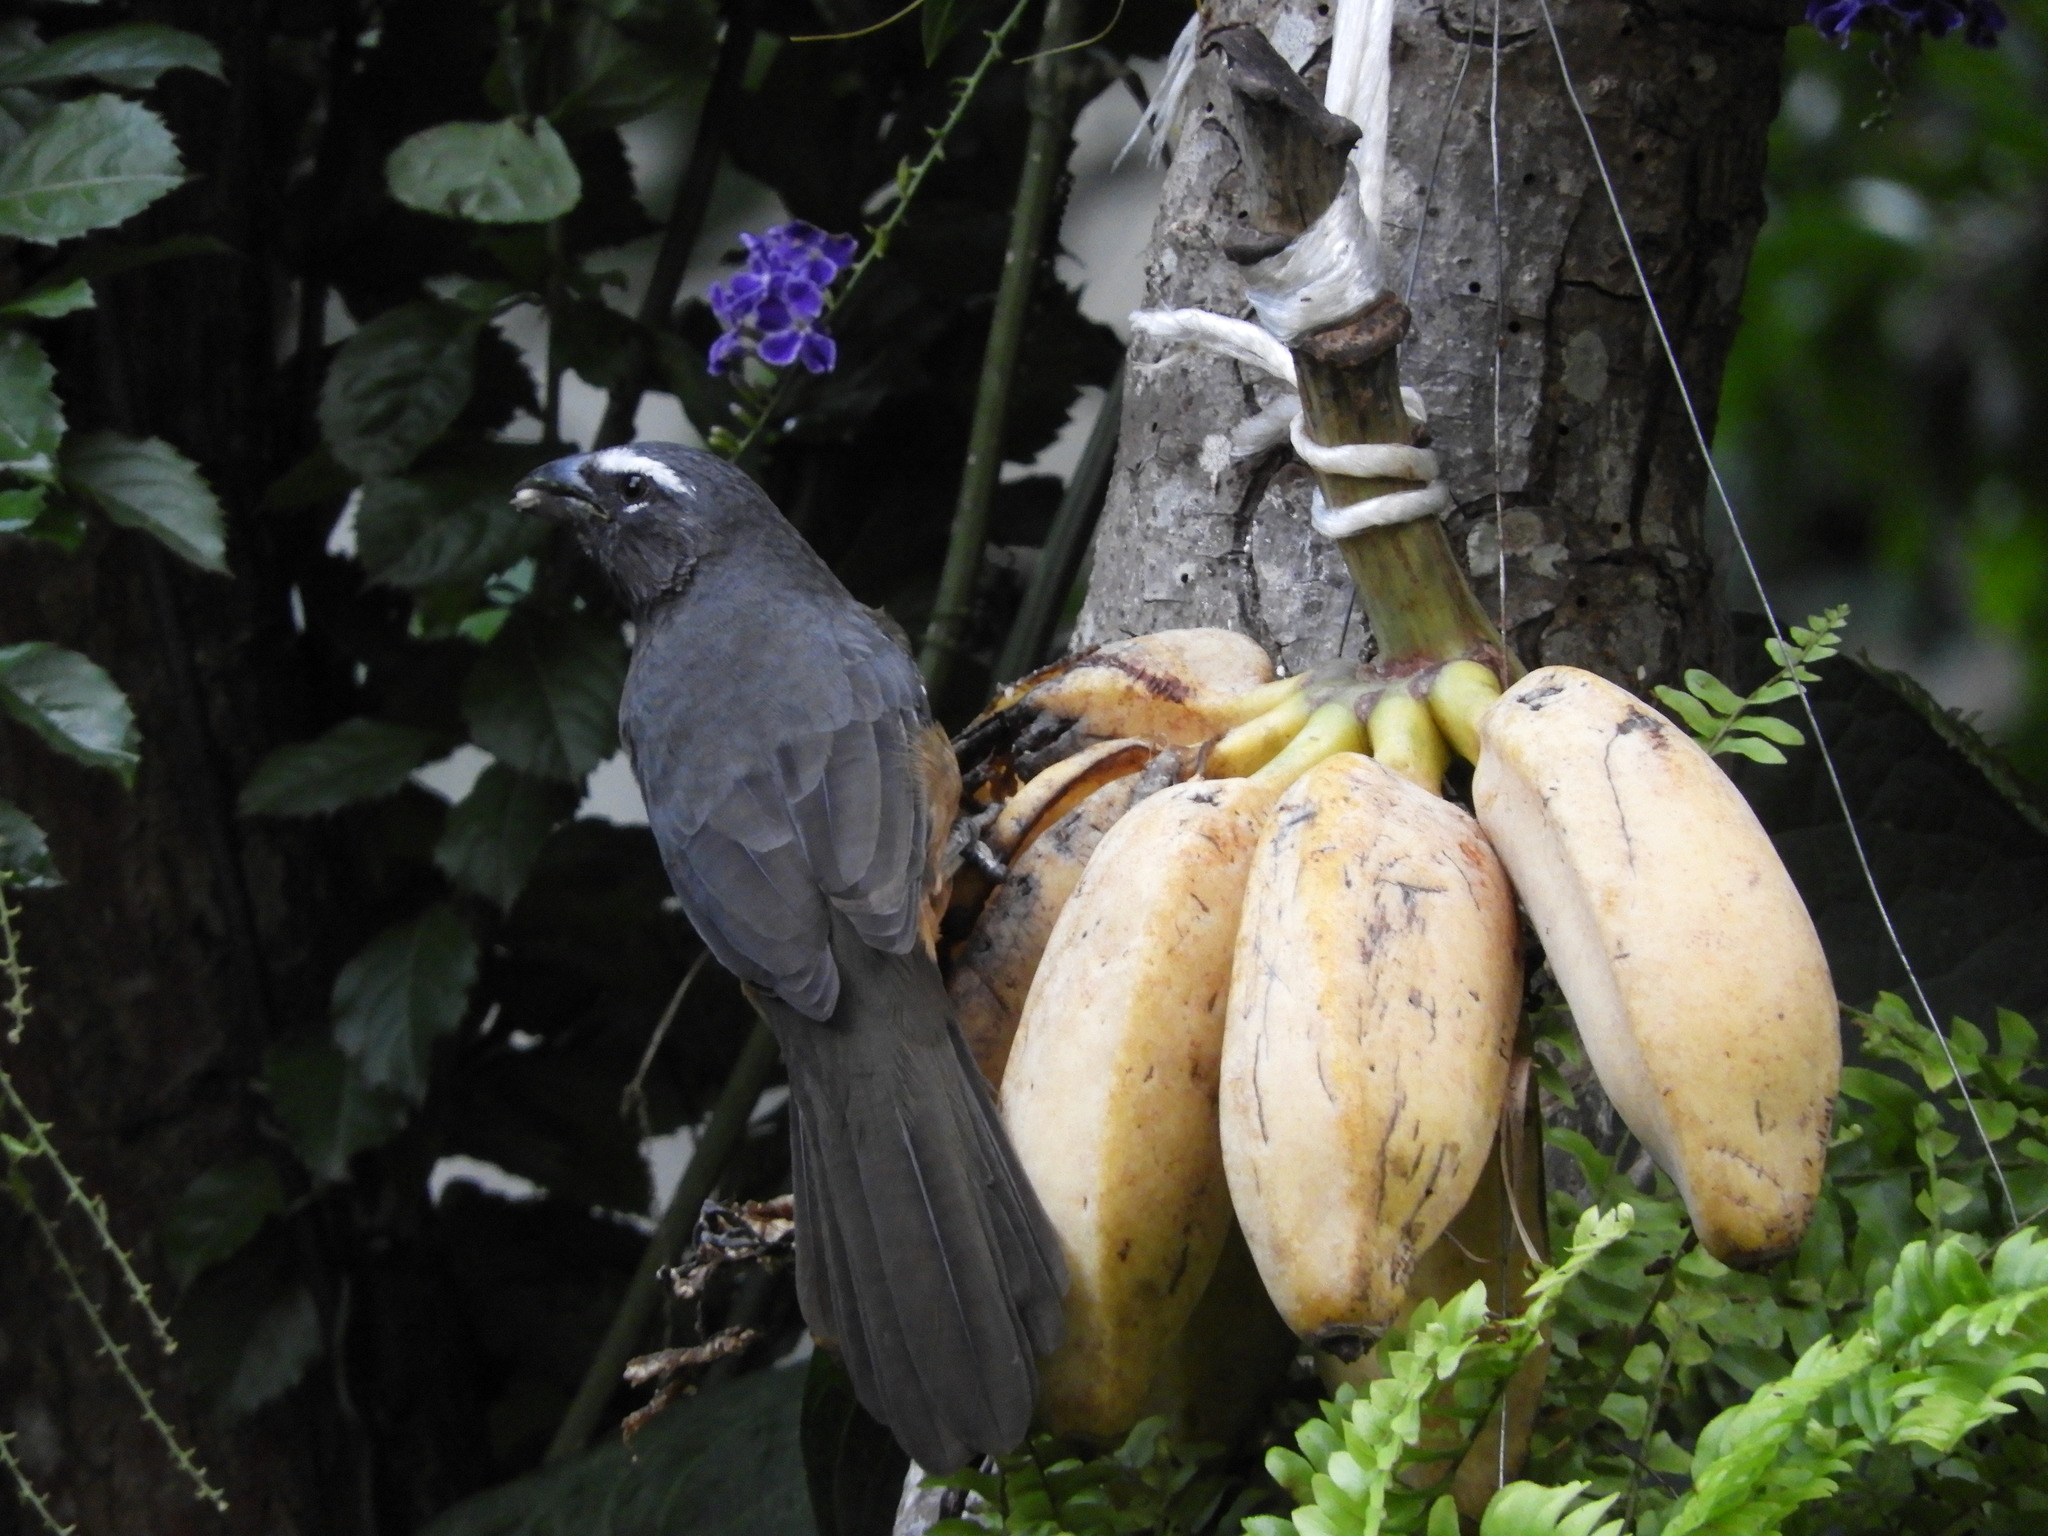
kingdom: Animalia
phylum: Chordata
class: Aves
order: Passeriformes
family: Thraupidae
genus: Saltator
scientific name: Saltator grandis
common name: Cinnamon-bellied saltator
